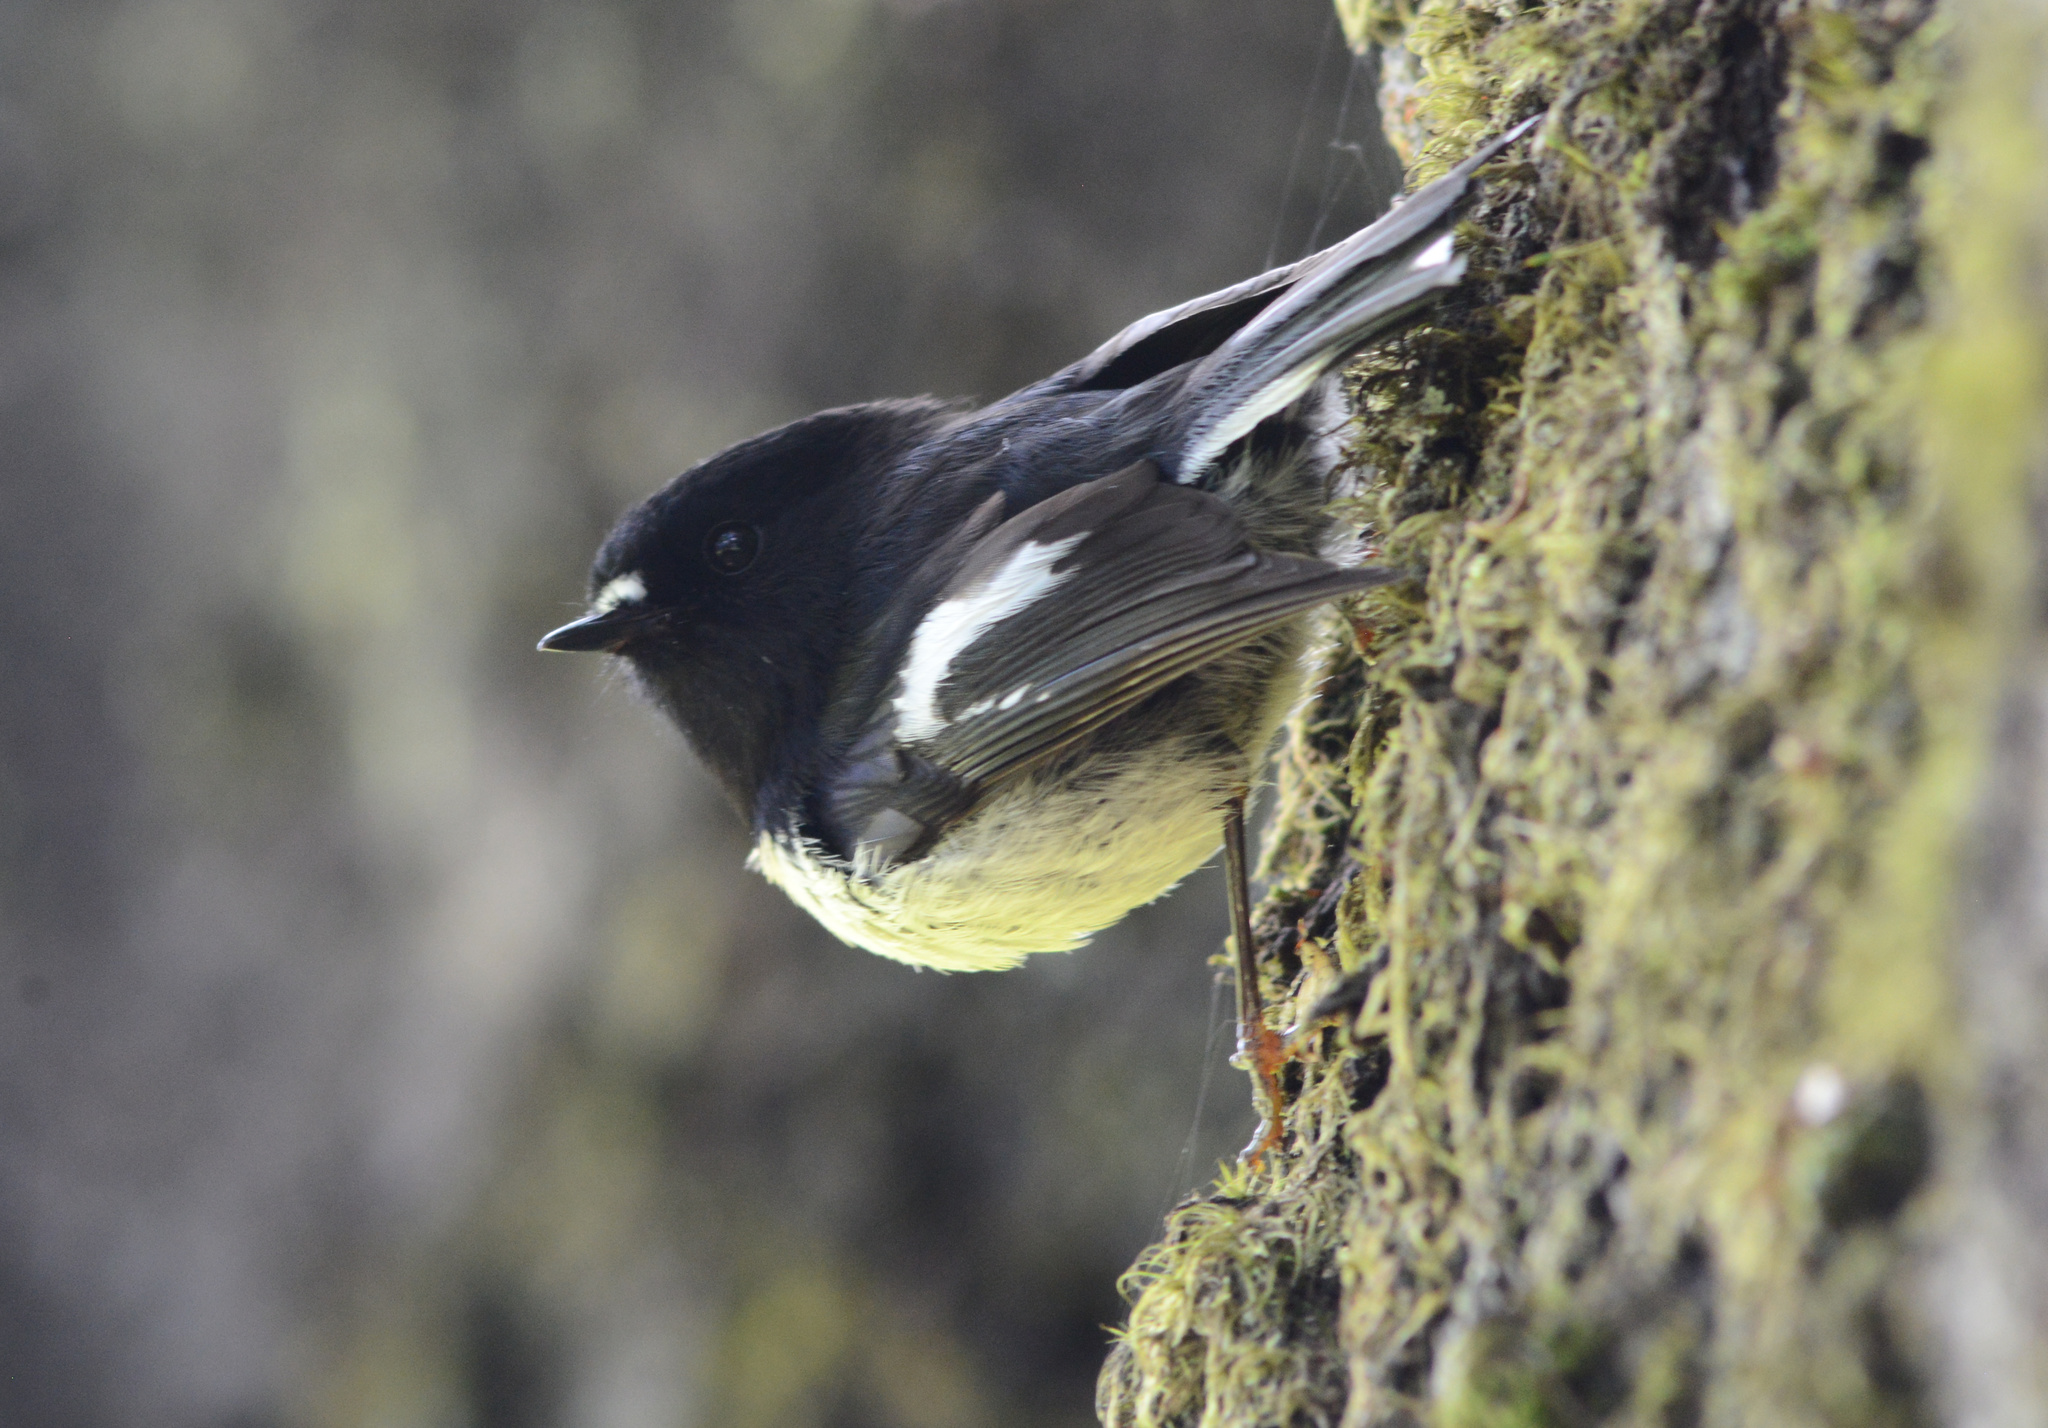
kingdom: Animalia
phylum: Chordata
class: Aves
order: Passeriformes
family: Petroicidae
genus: Petroica
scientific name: Petroica macrocephala
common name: Tomtit
